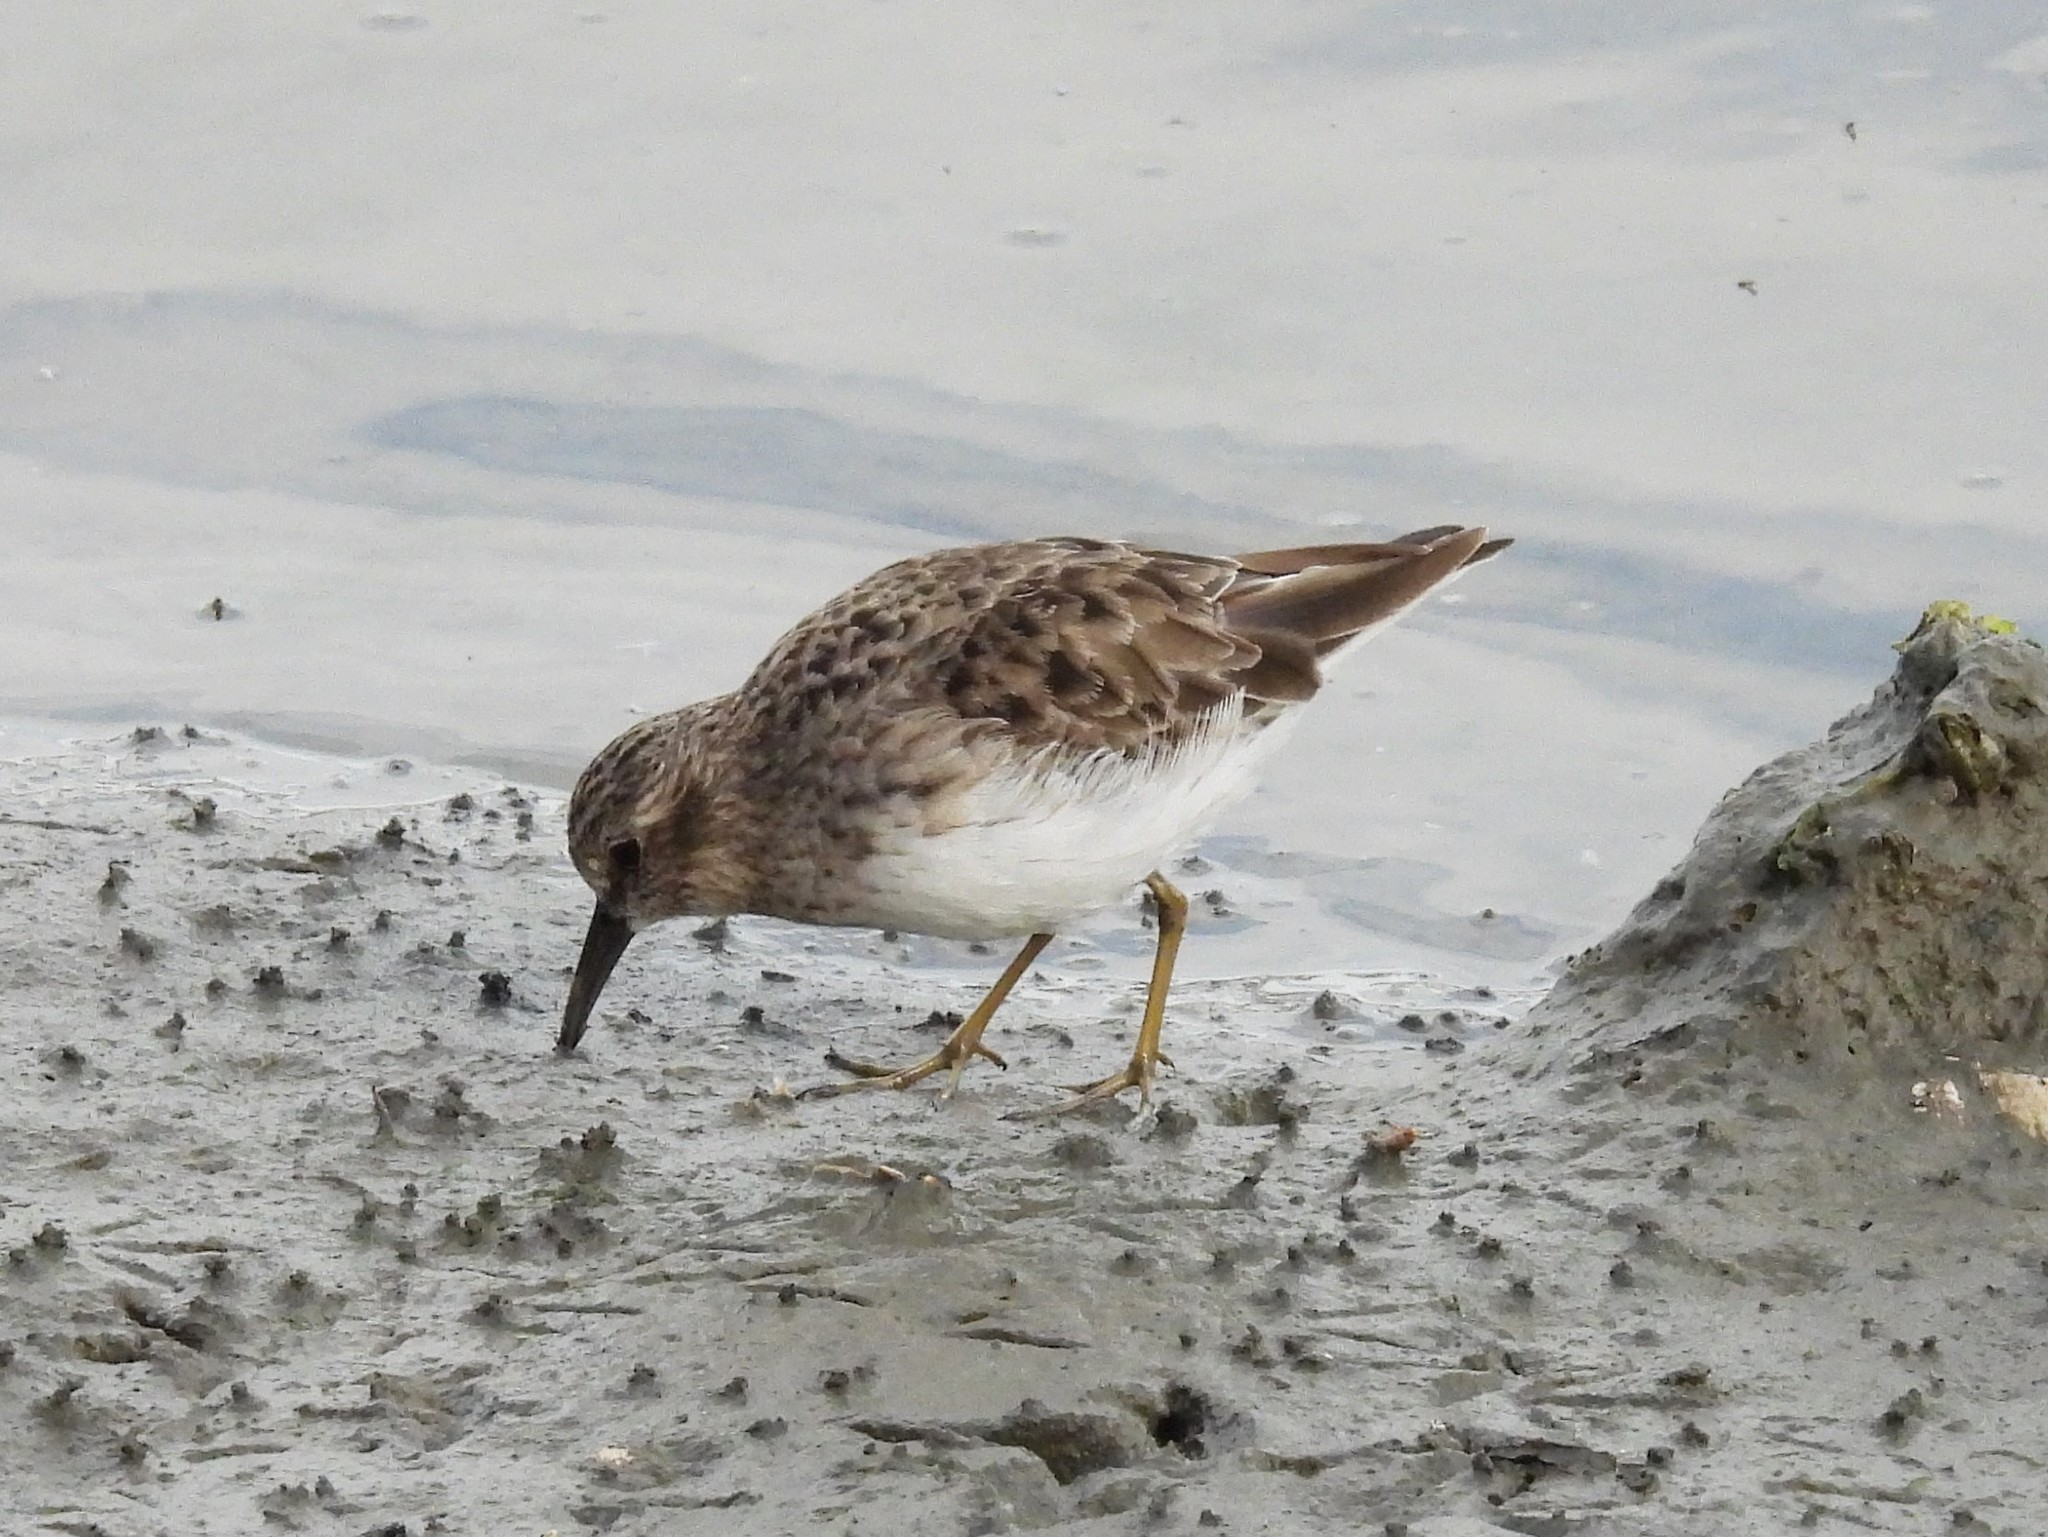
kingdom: Animalia
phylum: Chordata
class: Aves
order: Charadriiformes
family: Scolopacidae
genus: Calidris
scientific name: Calidris minutilla
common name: Least sandpiper
